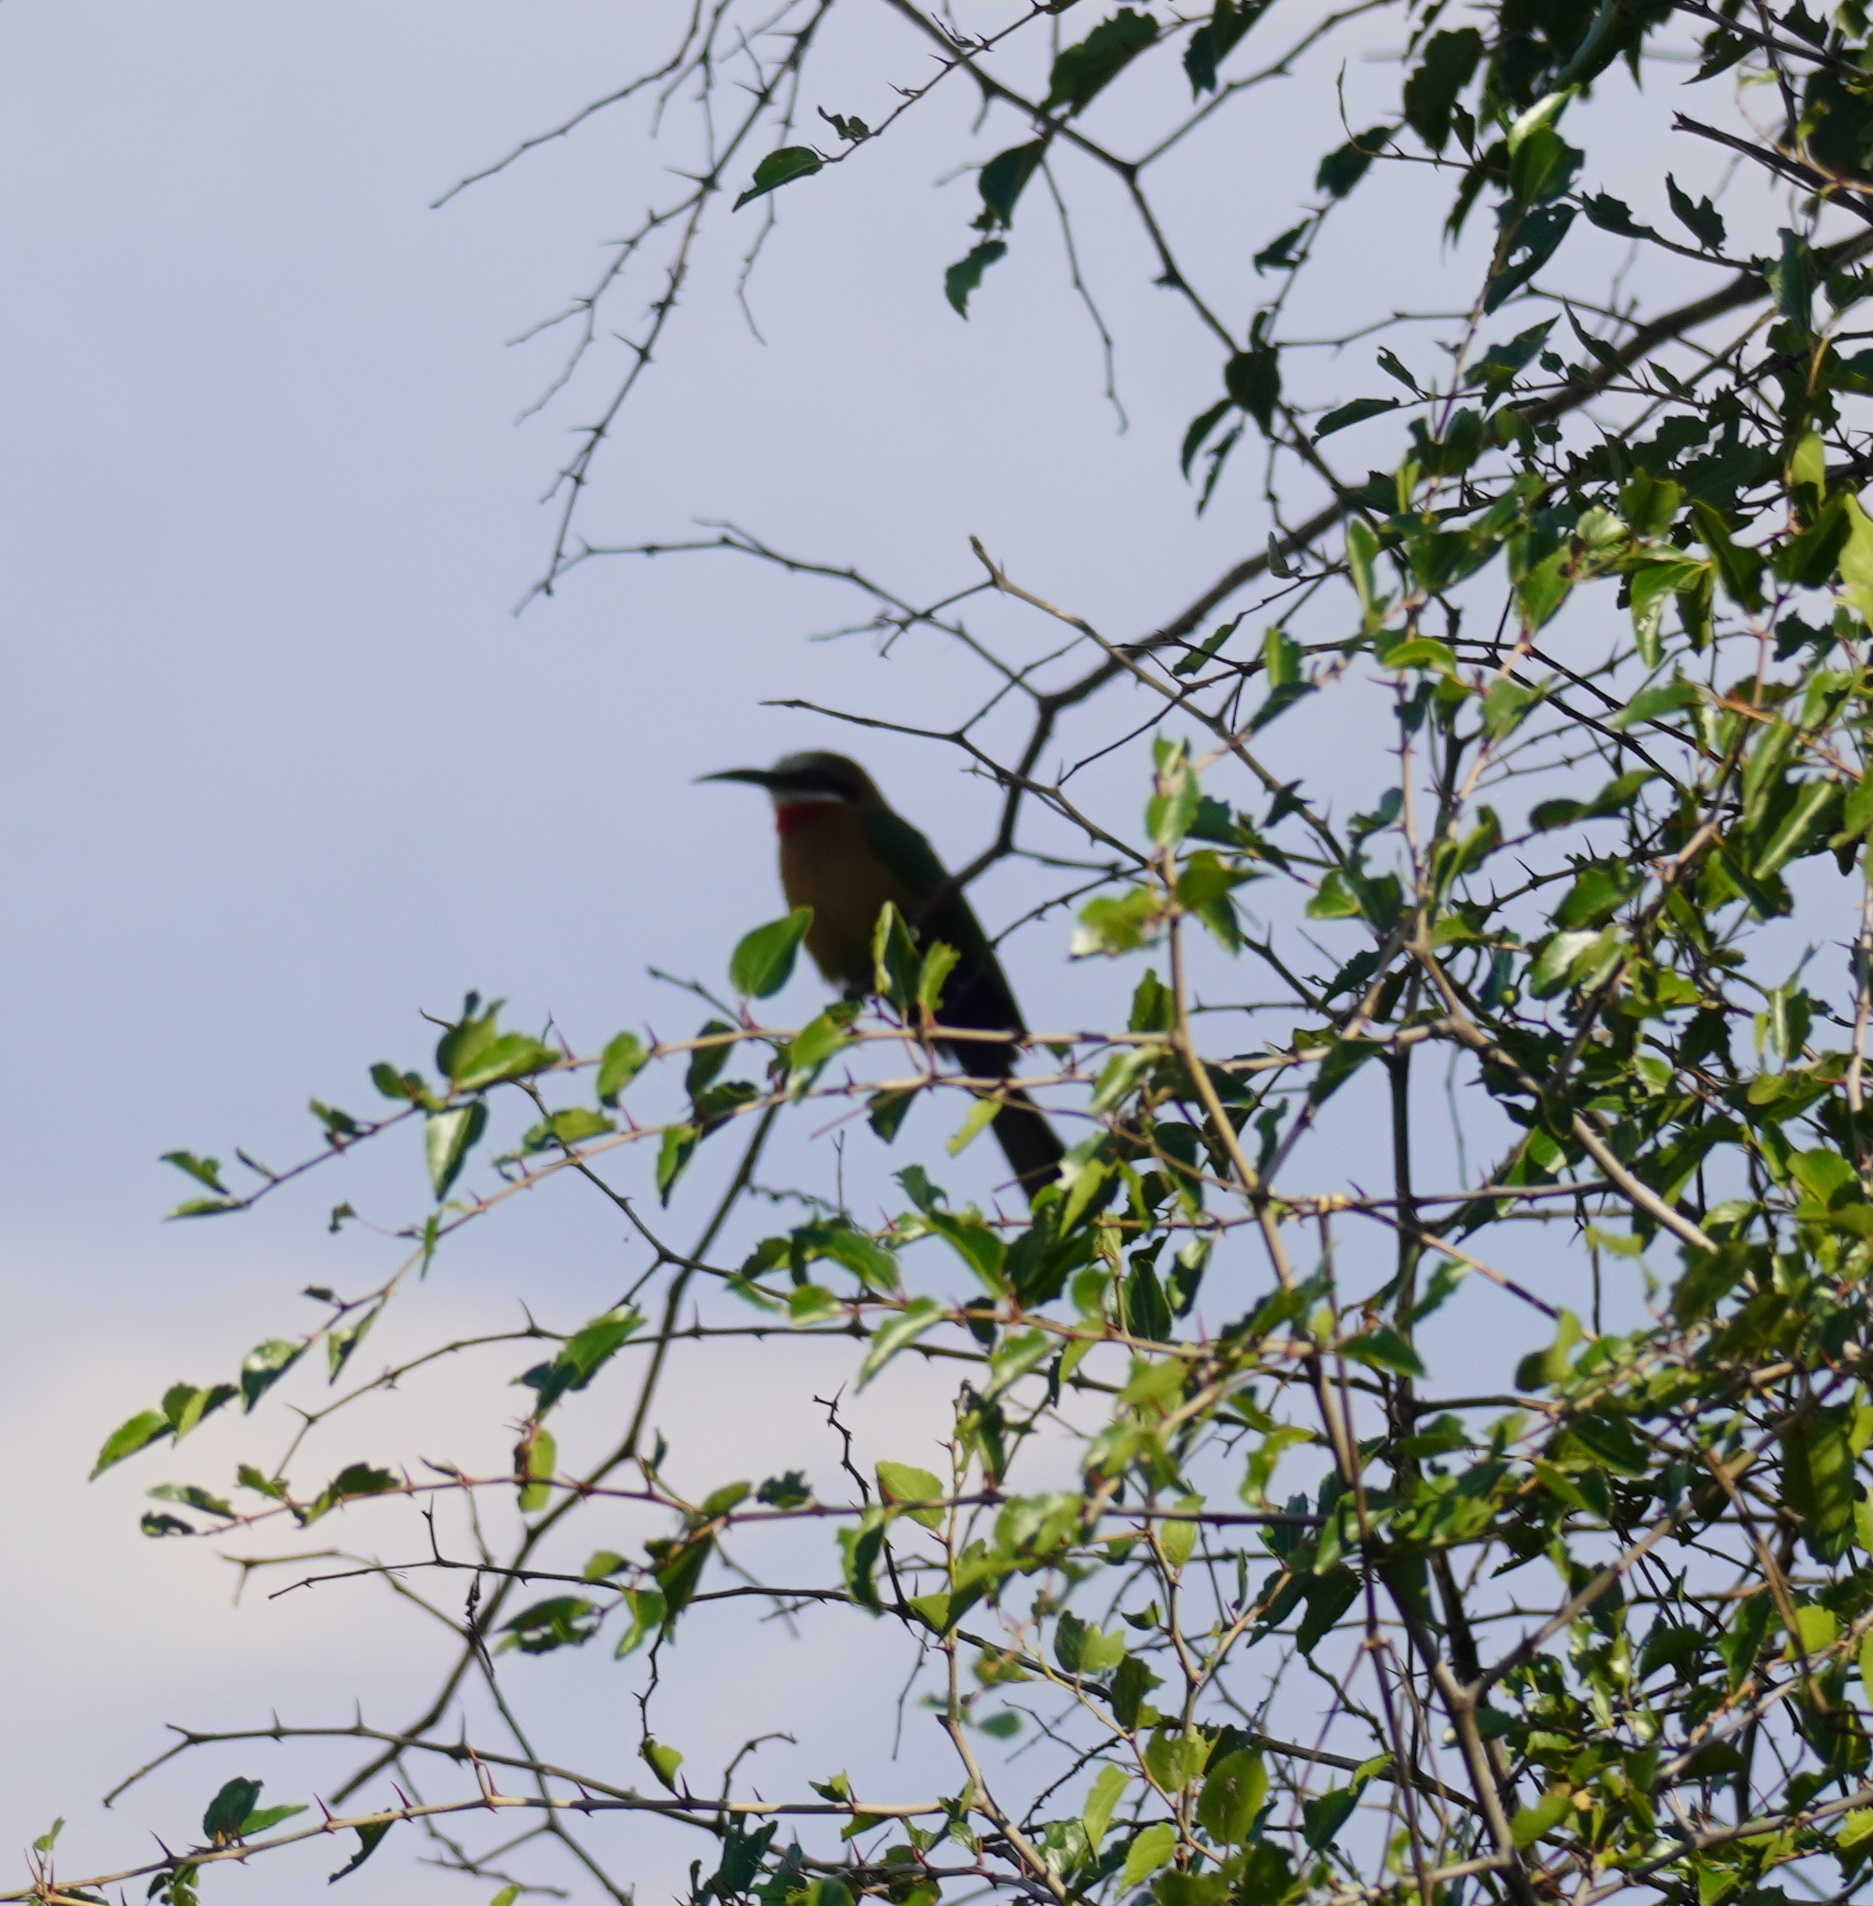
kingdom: Animalia
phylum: Chordata
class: Aves
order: Coraciiformes
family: Meropidae
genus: Merops
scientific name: Merops bullockoides
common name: White-fronted bee-eater
